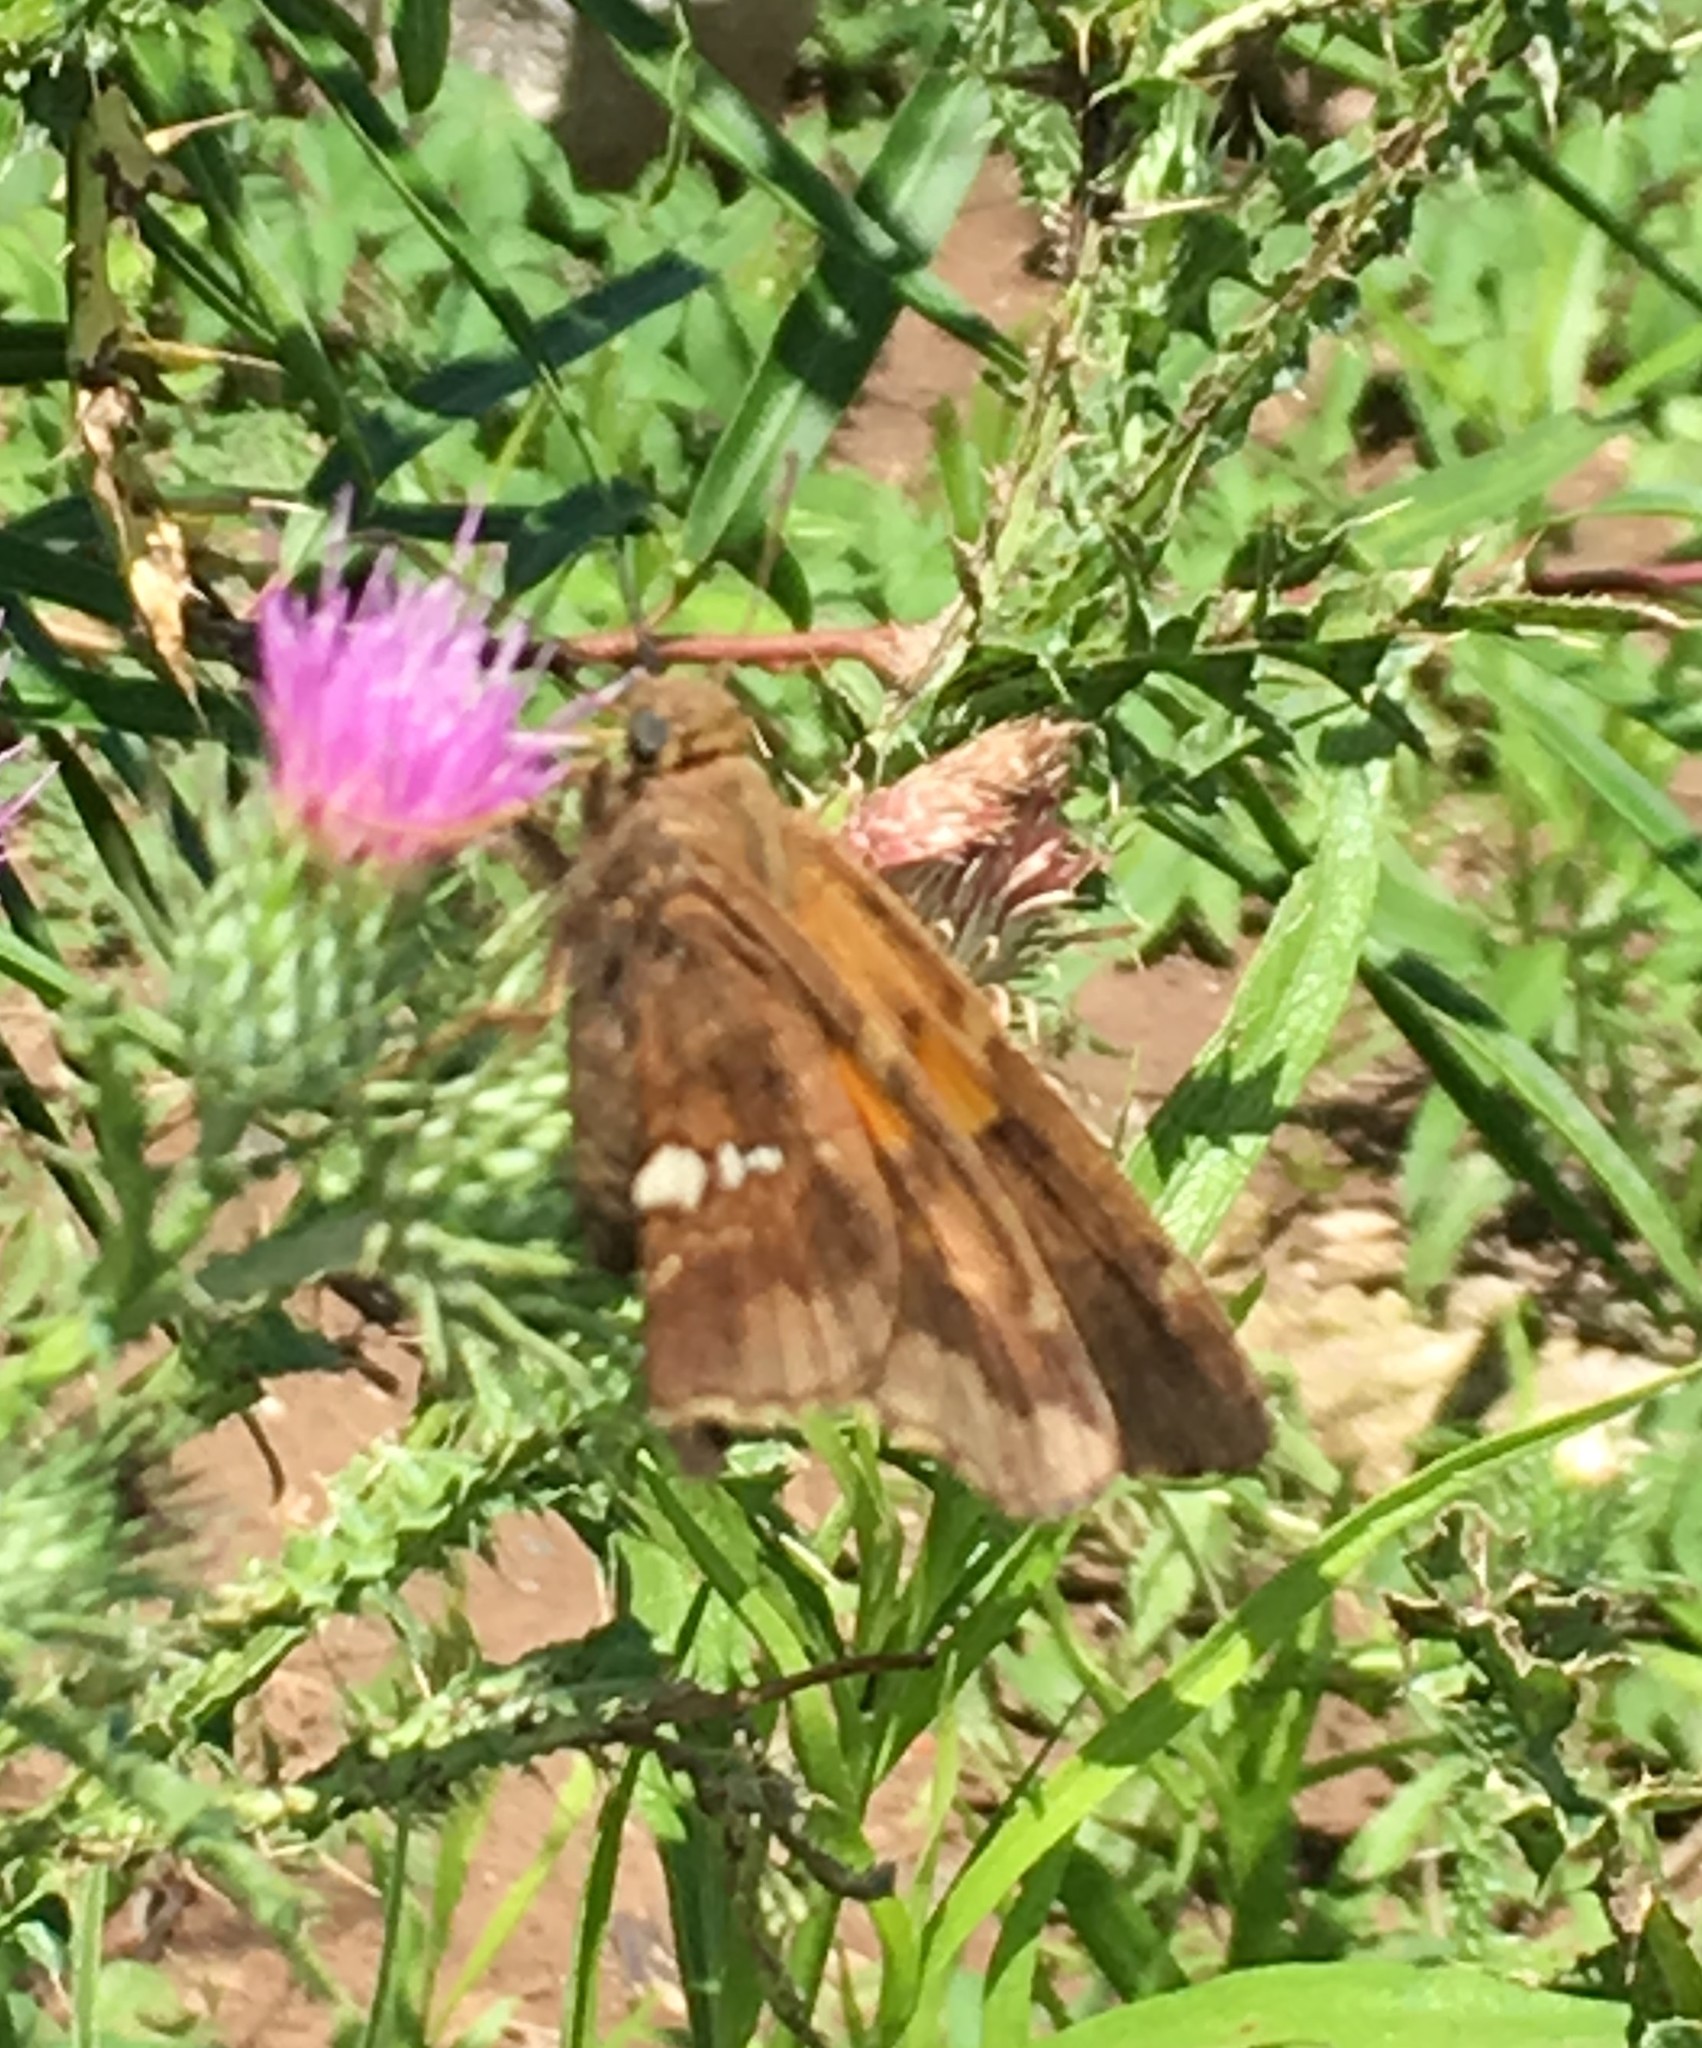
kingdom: Animalia
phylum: Arthropoda
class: Insecta
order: Lepidoptera
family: Hesperiidae
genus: Epargyreus
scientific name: Epargyreus tmolis
